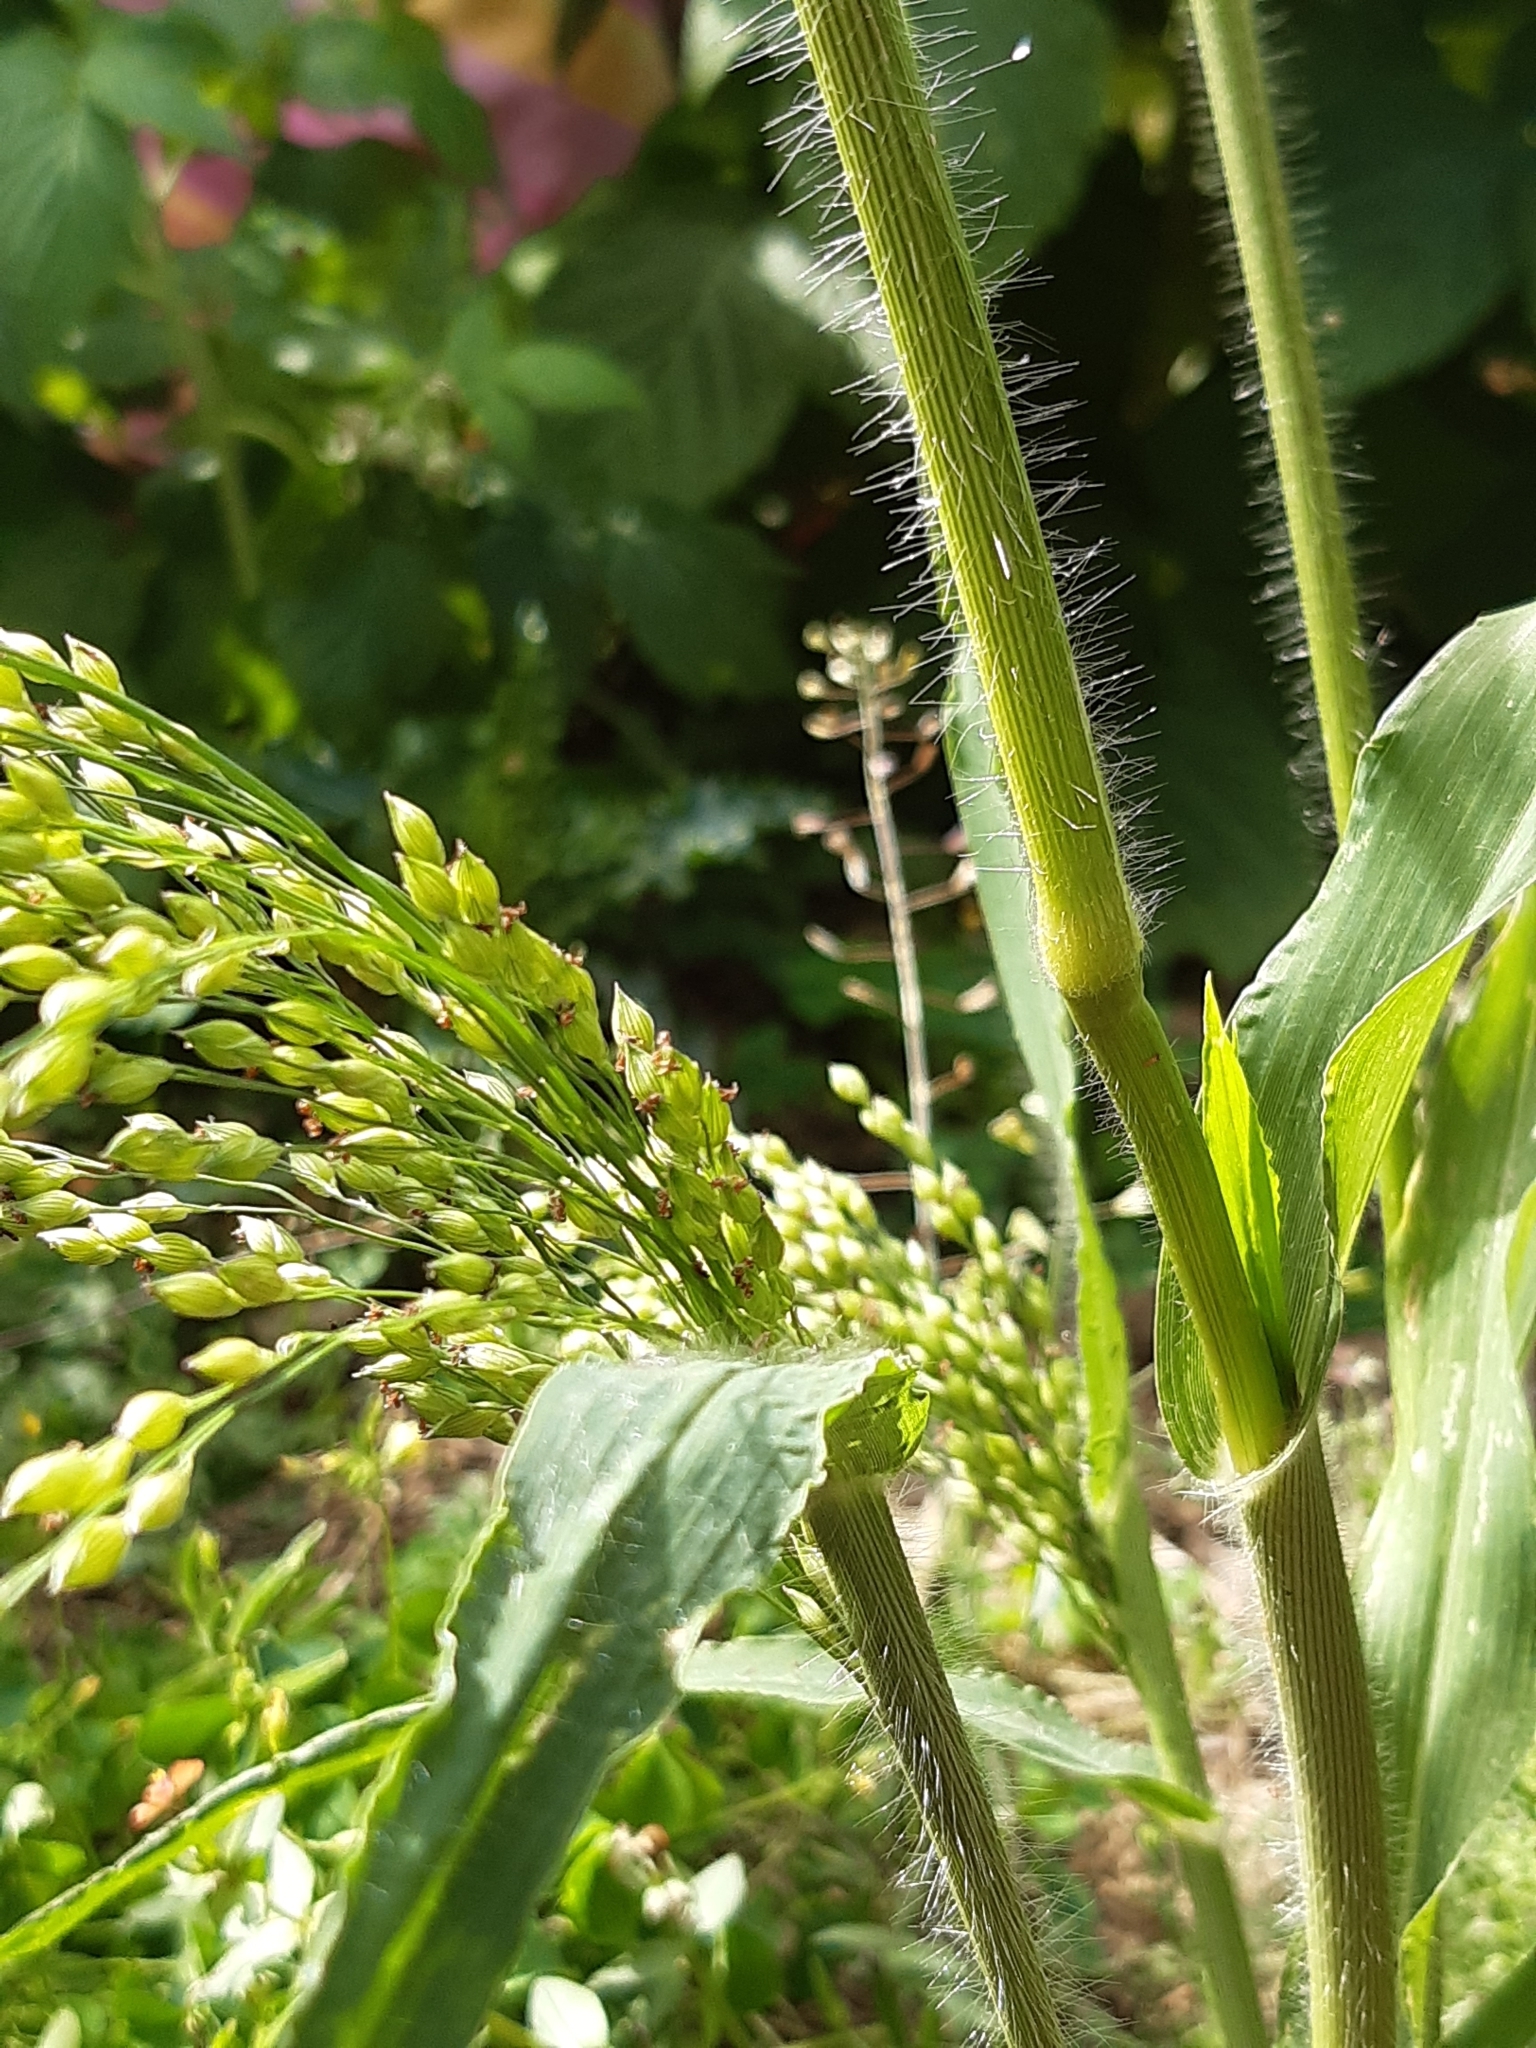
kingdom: Plantae
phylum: Tracheophyta
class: Liliopsida
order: Poales
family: Poaceae
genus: Panicum
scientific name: Panicum capillare
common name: Witch-grass
